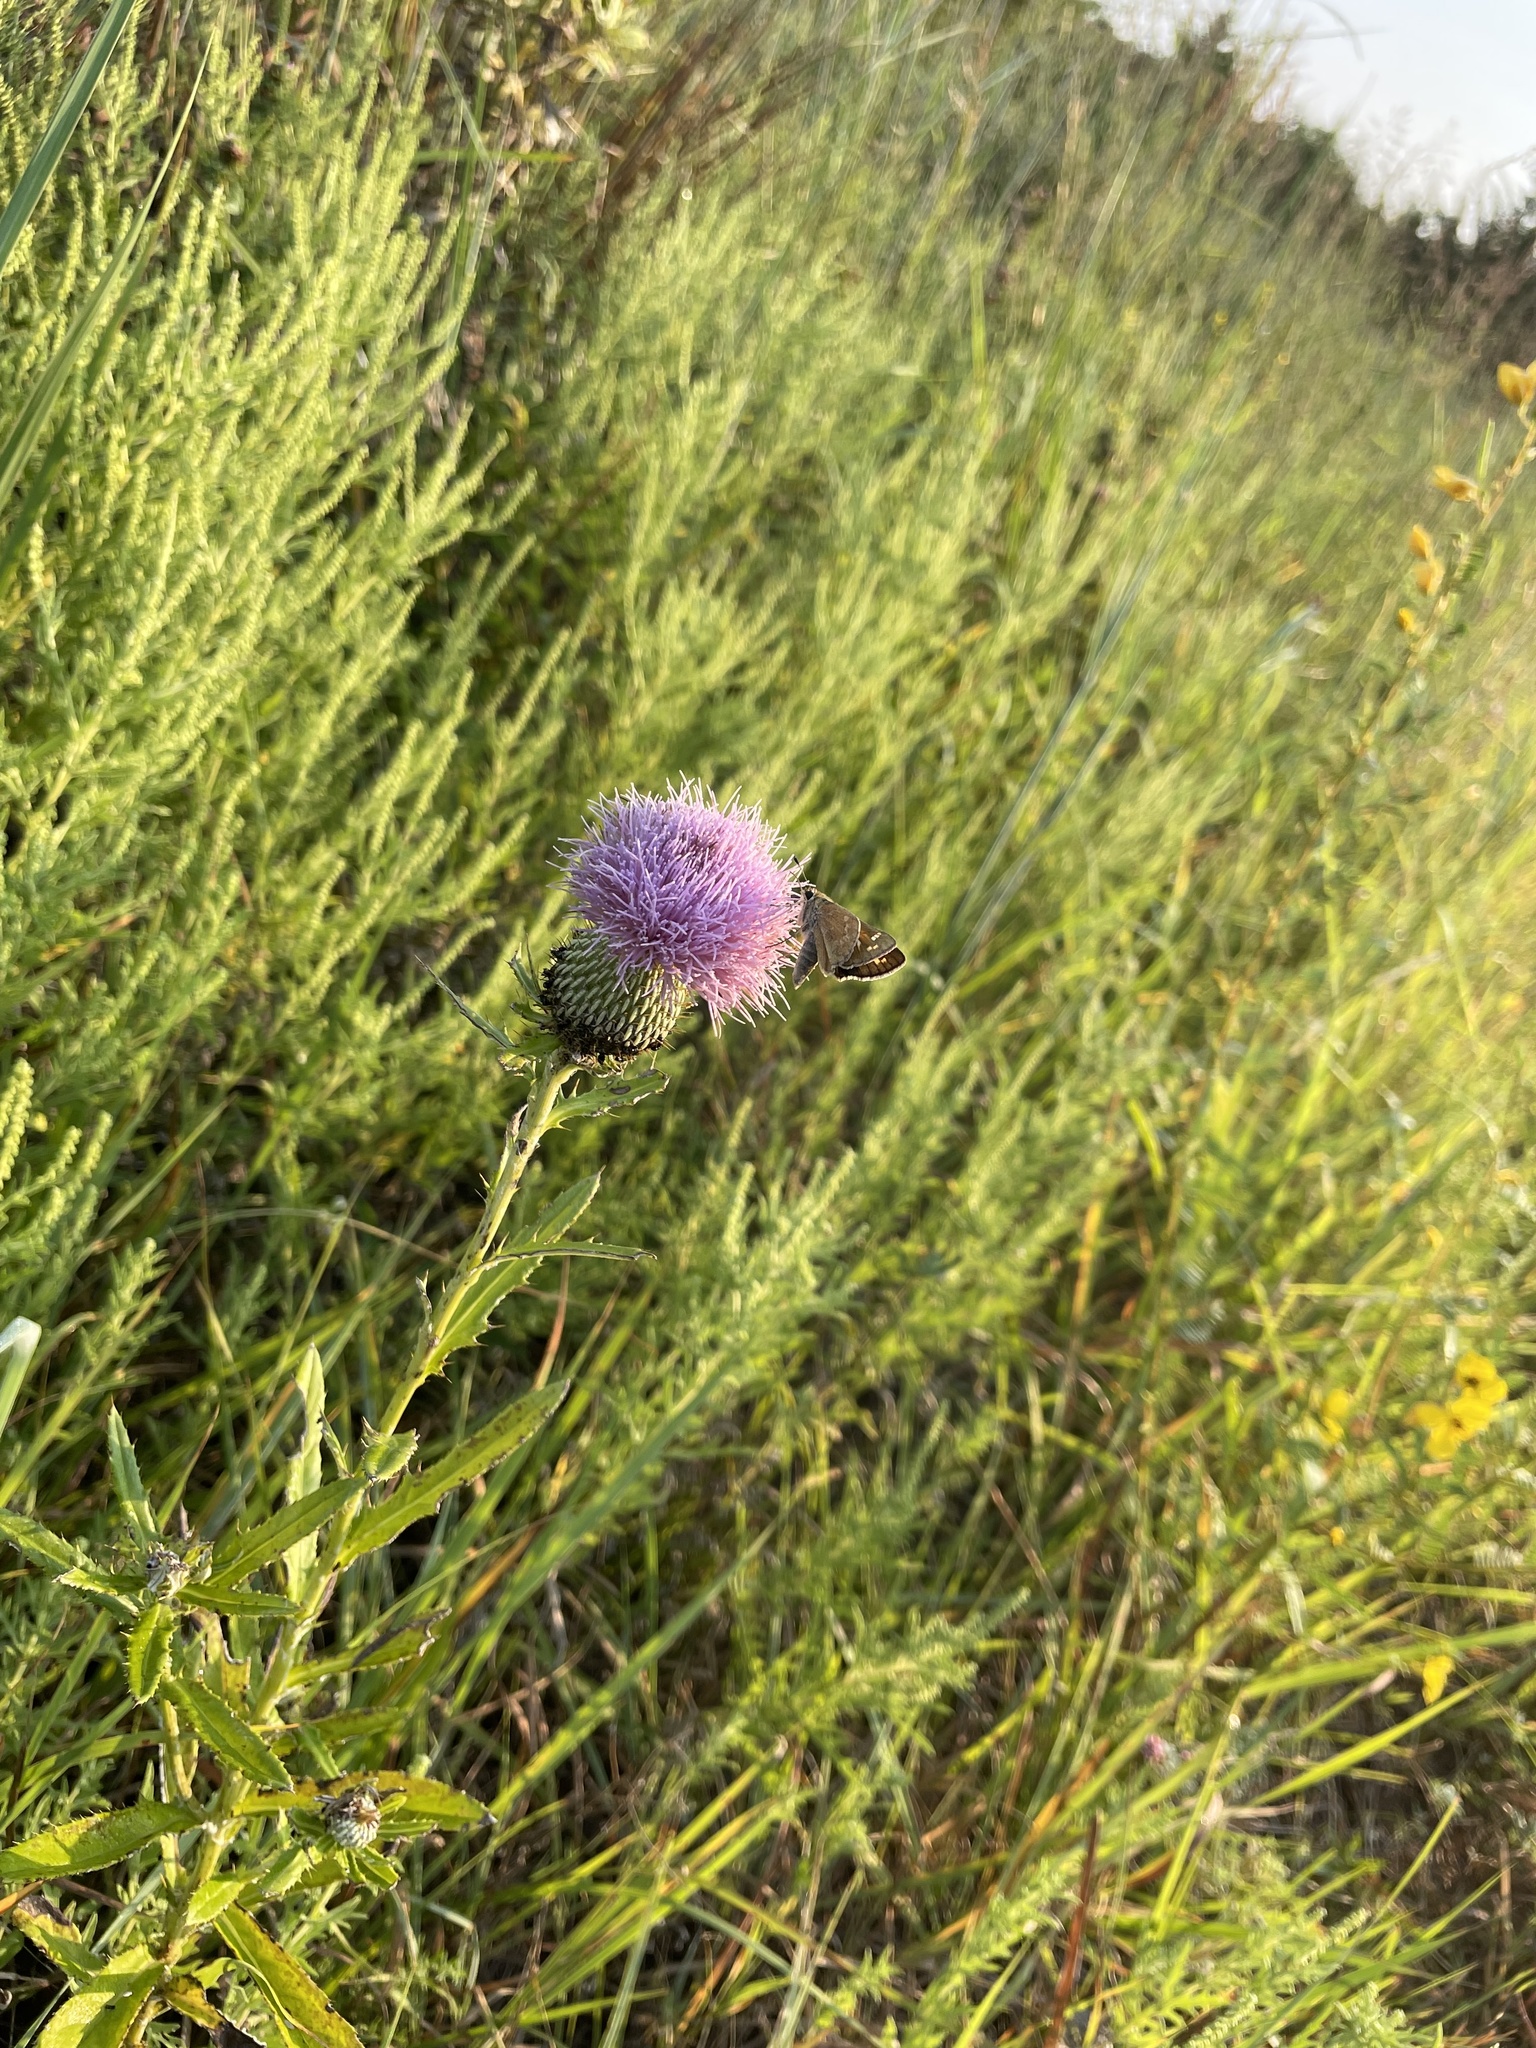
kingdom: Animalia
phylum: Arthropoda
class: Insecta
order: Lepidoptera
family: Hesperiidae
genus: Atalopedes
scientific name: Atalopedes
